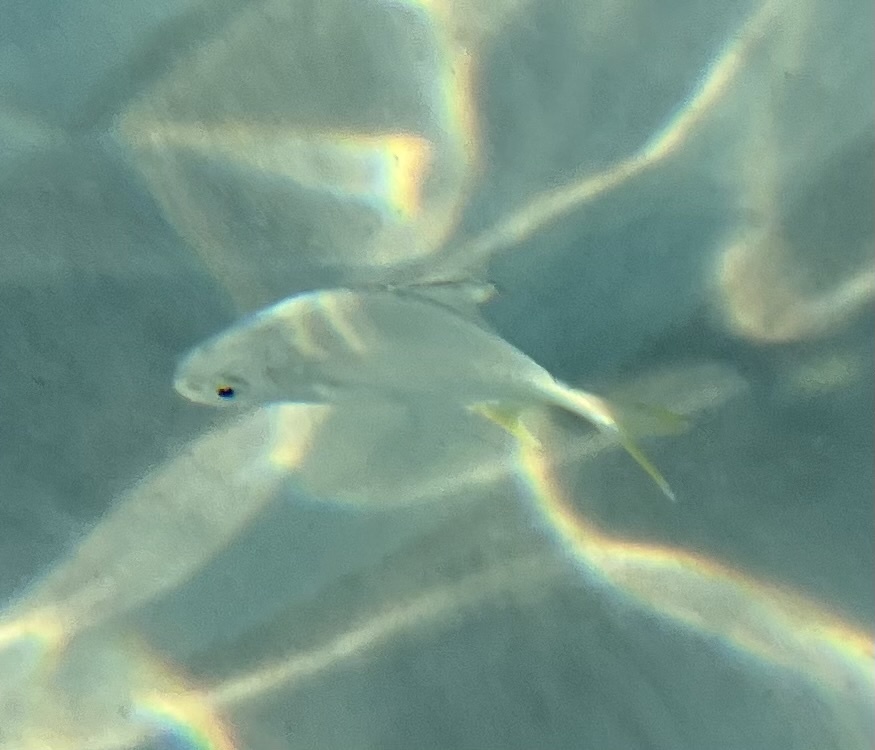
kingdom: Animalia
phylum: Chordata
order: Perciformes
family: Carangidae
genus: Trachinotus
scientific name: Trachinotus carolinus
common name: Florida pompano
